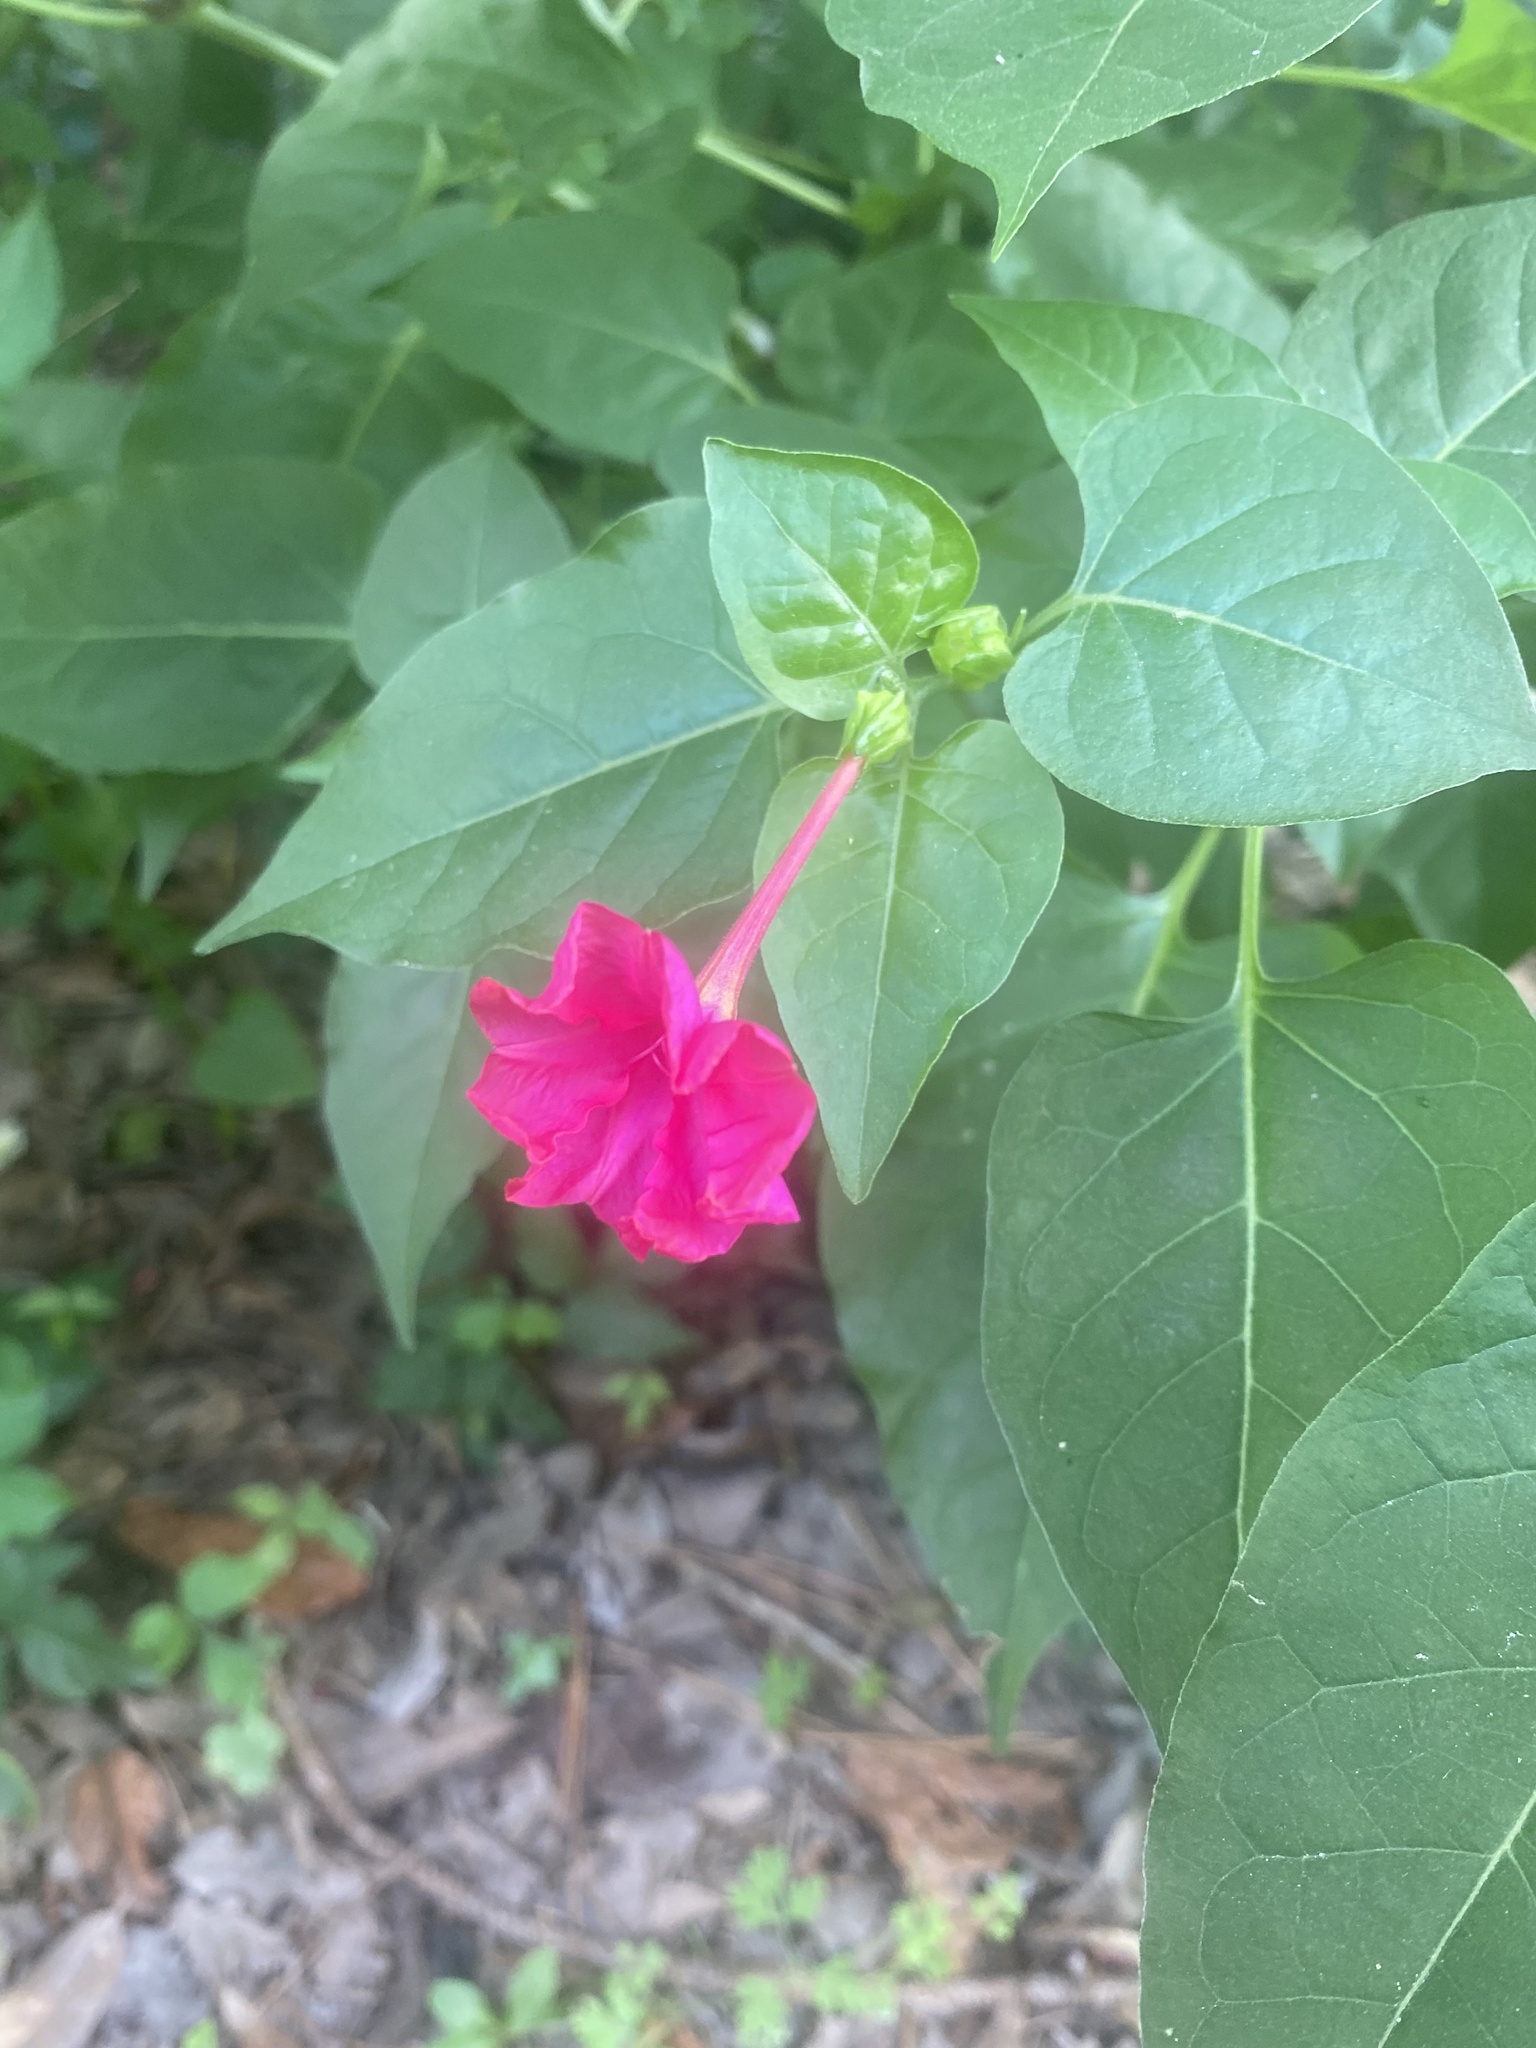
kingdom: Plantae
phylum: Tracheophyta
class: Magnoliopsida
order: Caryophyllales
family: Nyctaginaceae
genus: Mirabilis
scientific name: Mirabilis jalapa
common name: Marvel-of-peru
